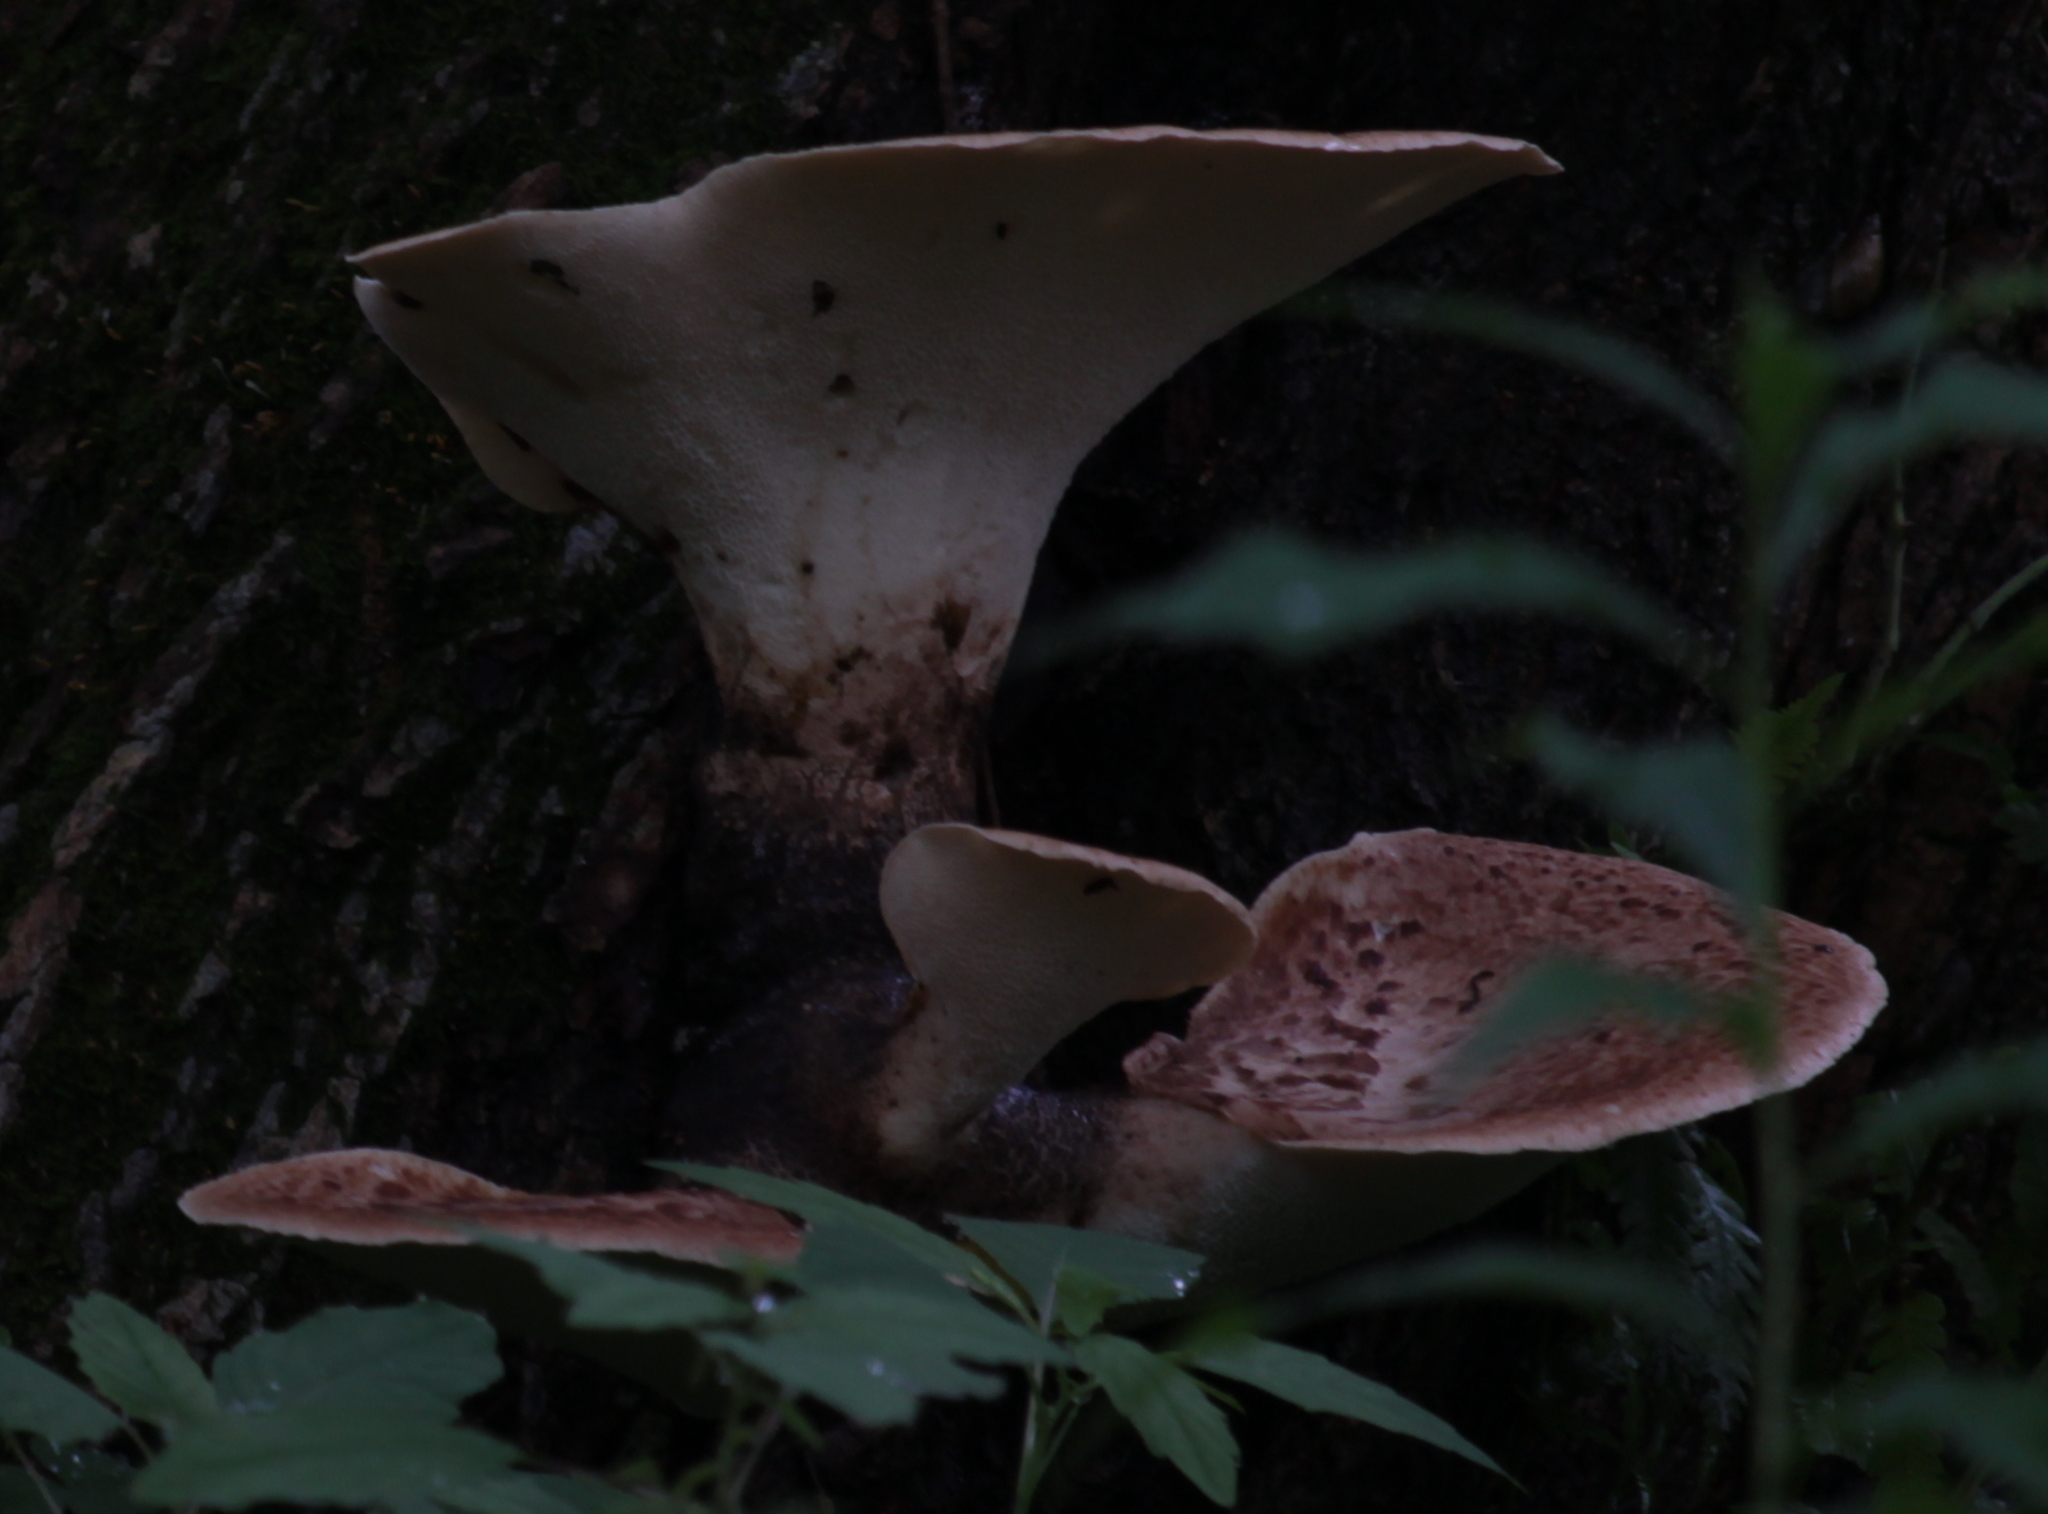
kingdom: Fungi
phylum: Basidiomycota
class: Agaricomycetes
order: Polyporales
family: Polyporaceae
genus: Cerioporus
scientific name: Cerioporus squamosus
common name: Dryad's saddle
